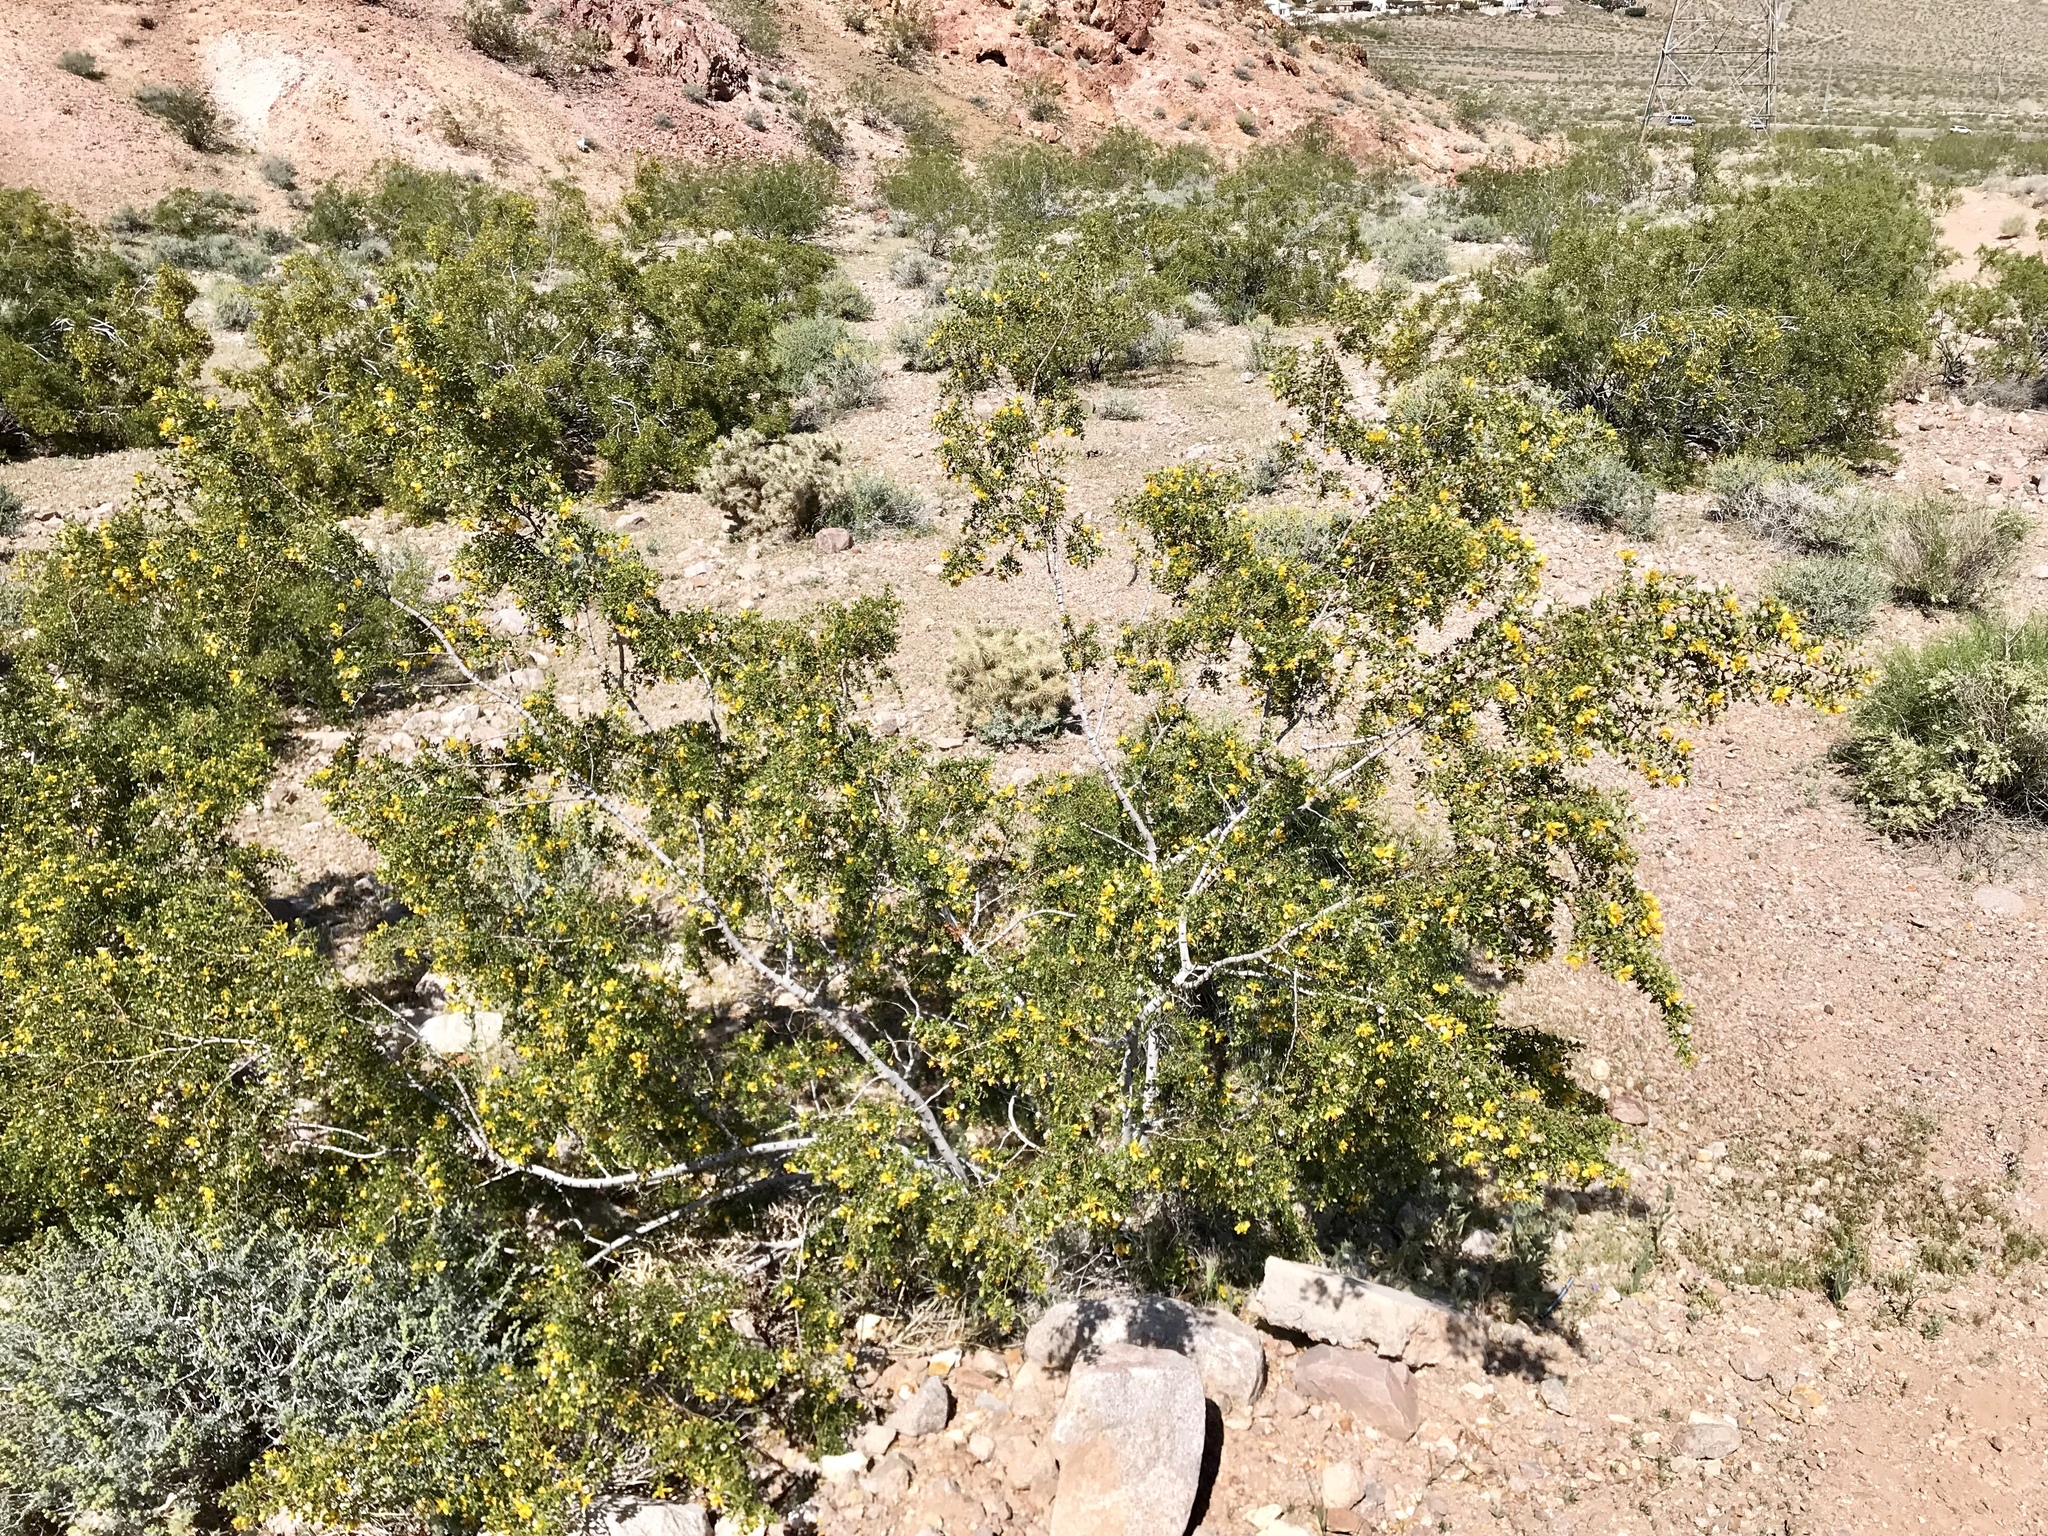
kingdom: Plantae
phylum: Tracheophyta
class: Magnoliopsida
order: Zygophyllales
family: Zygophyllaceae
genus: Larrea
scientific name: Larrea tridentata
